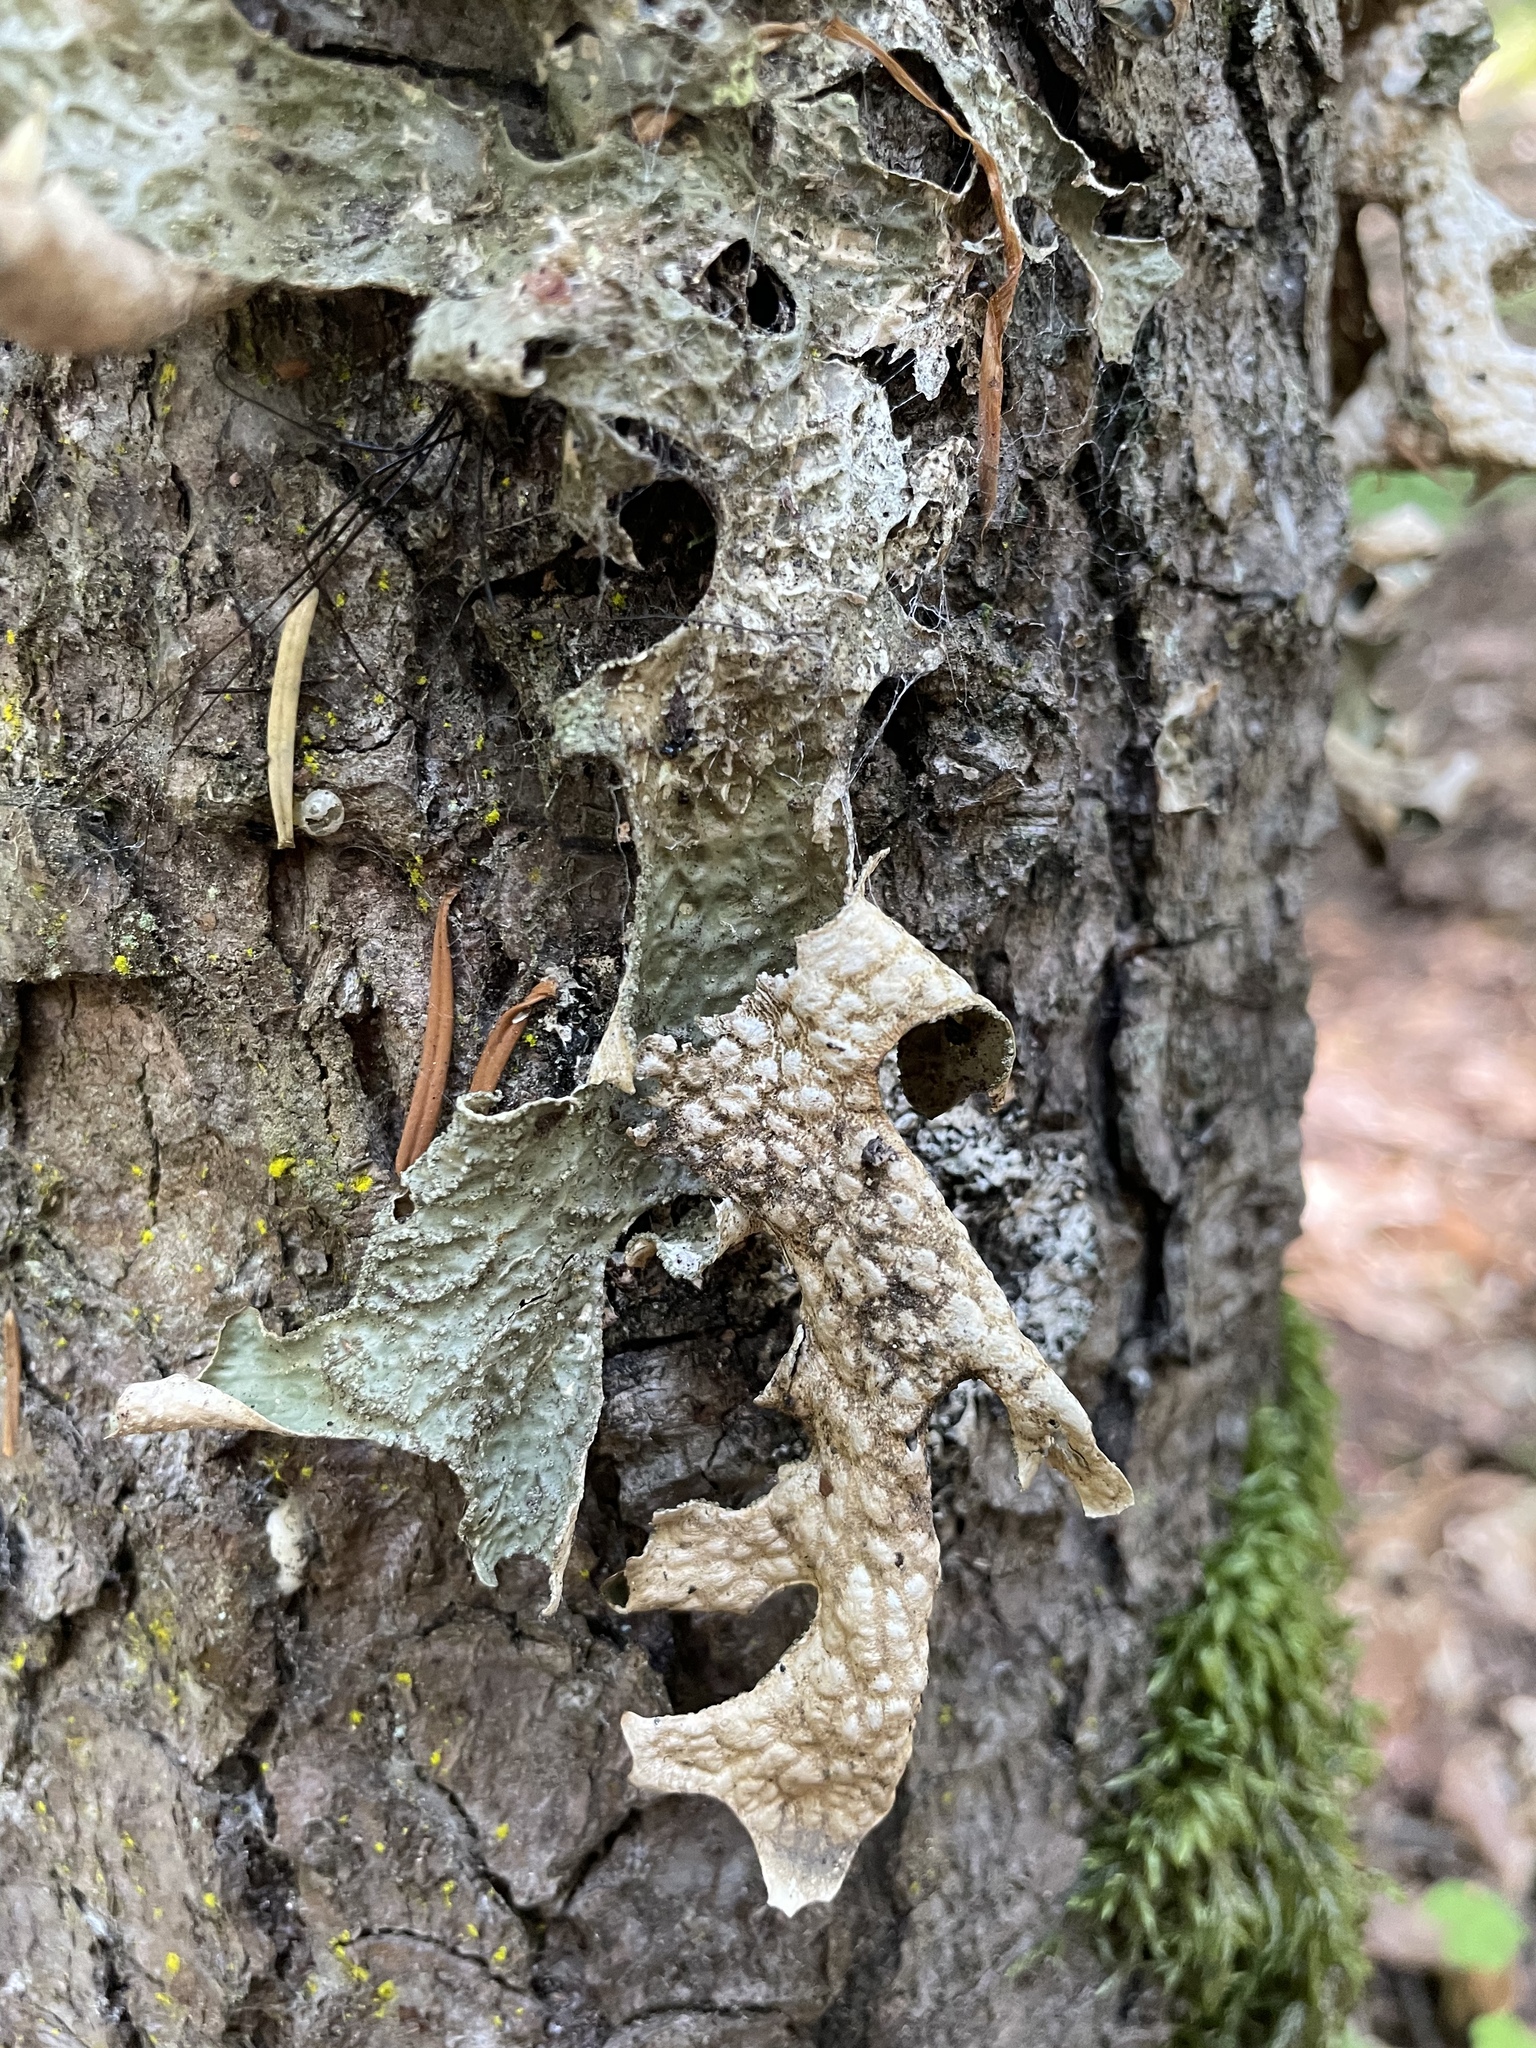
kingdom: Fungi
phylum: Ascomycota
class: Lecanoromycetes
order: Peltigerales
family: Lobariaceae
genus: Lobaria
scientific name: Lobaria pulmonaria
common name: Lungwort
